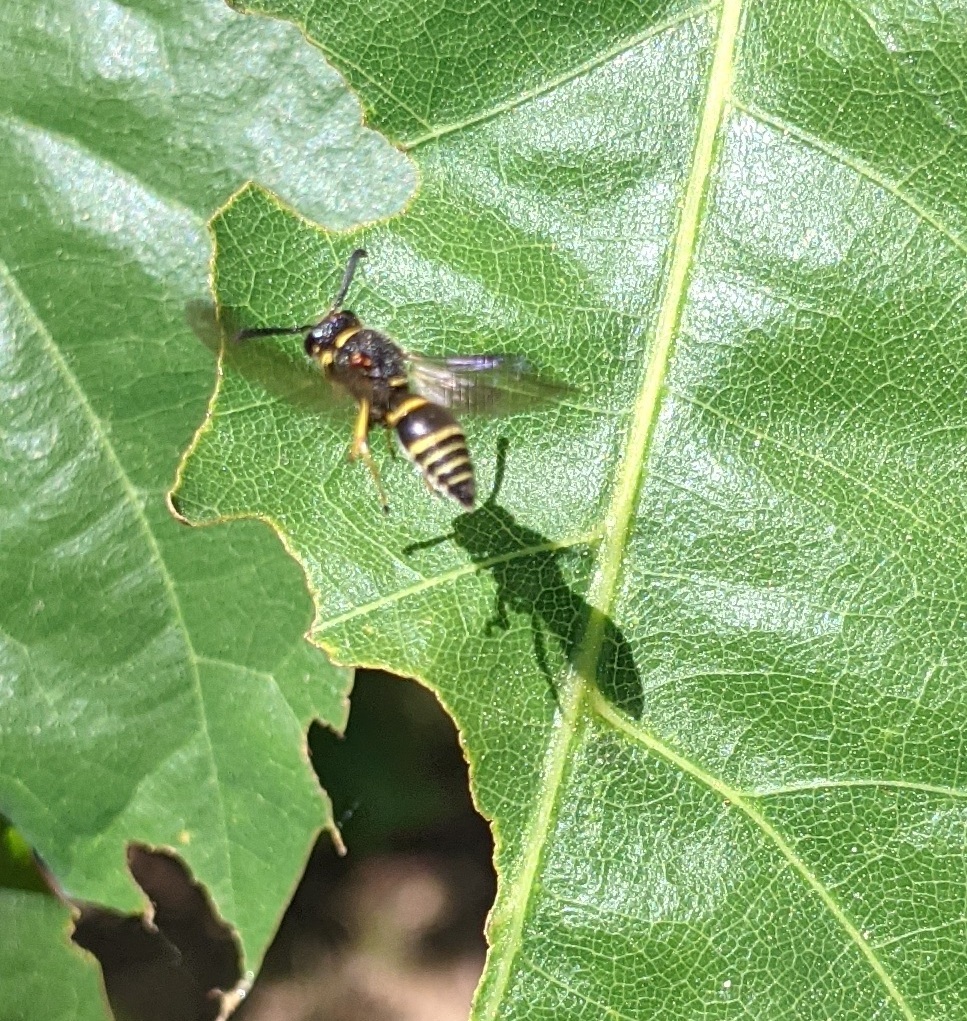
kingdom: Animalia
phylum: Arthropoda
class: Insecta
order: Hymenoptera
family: Eumenidae
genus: Euodynerus
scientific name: Euodynerus foraminatus
